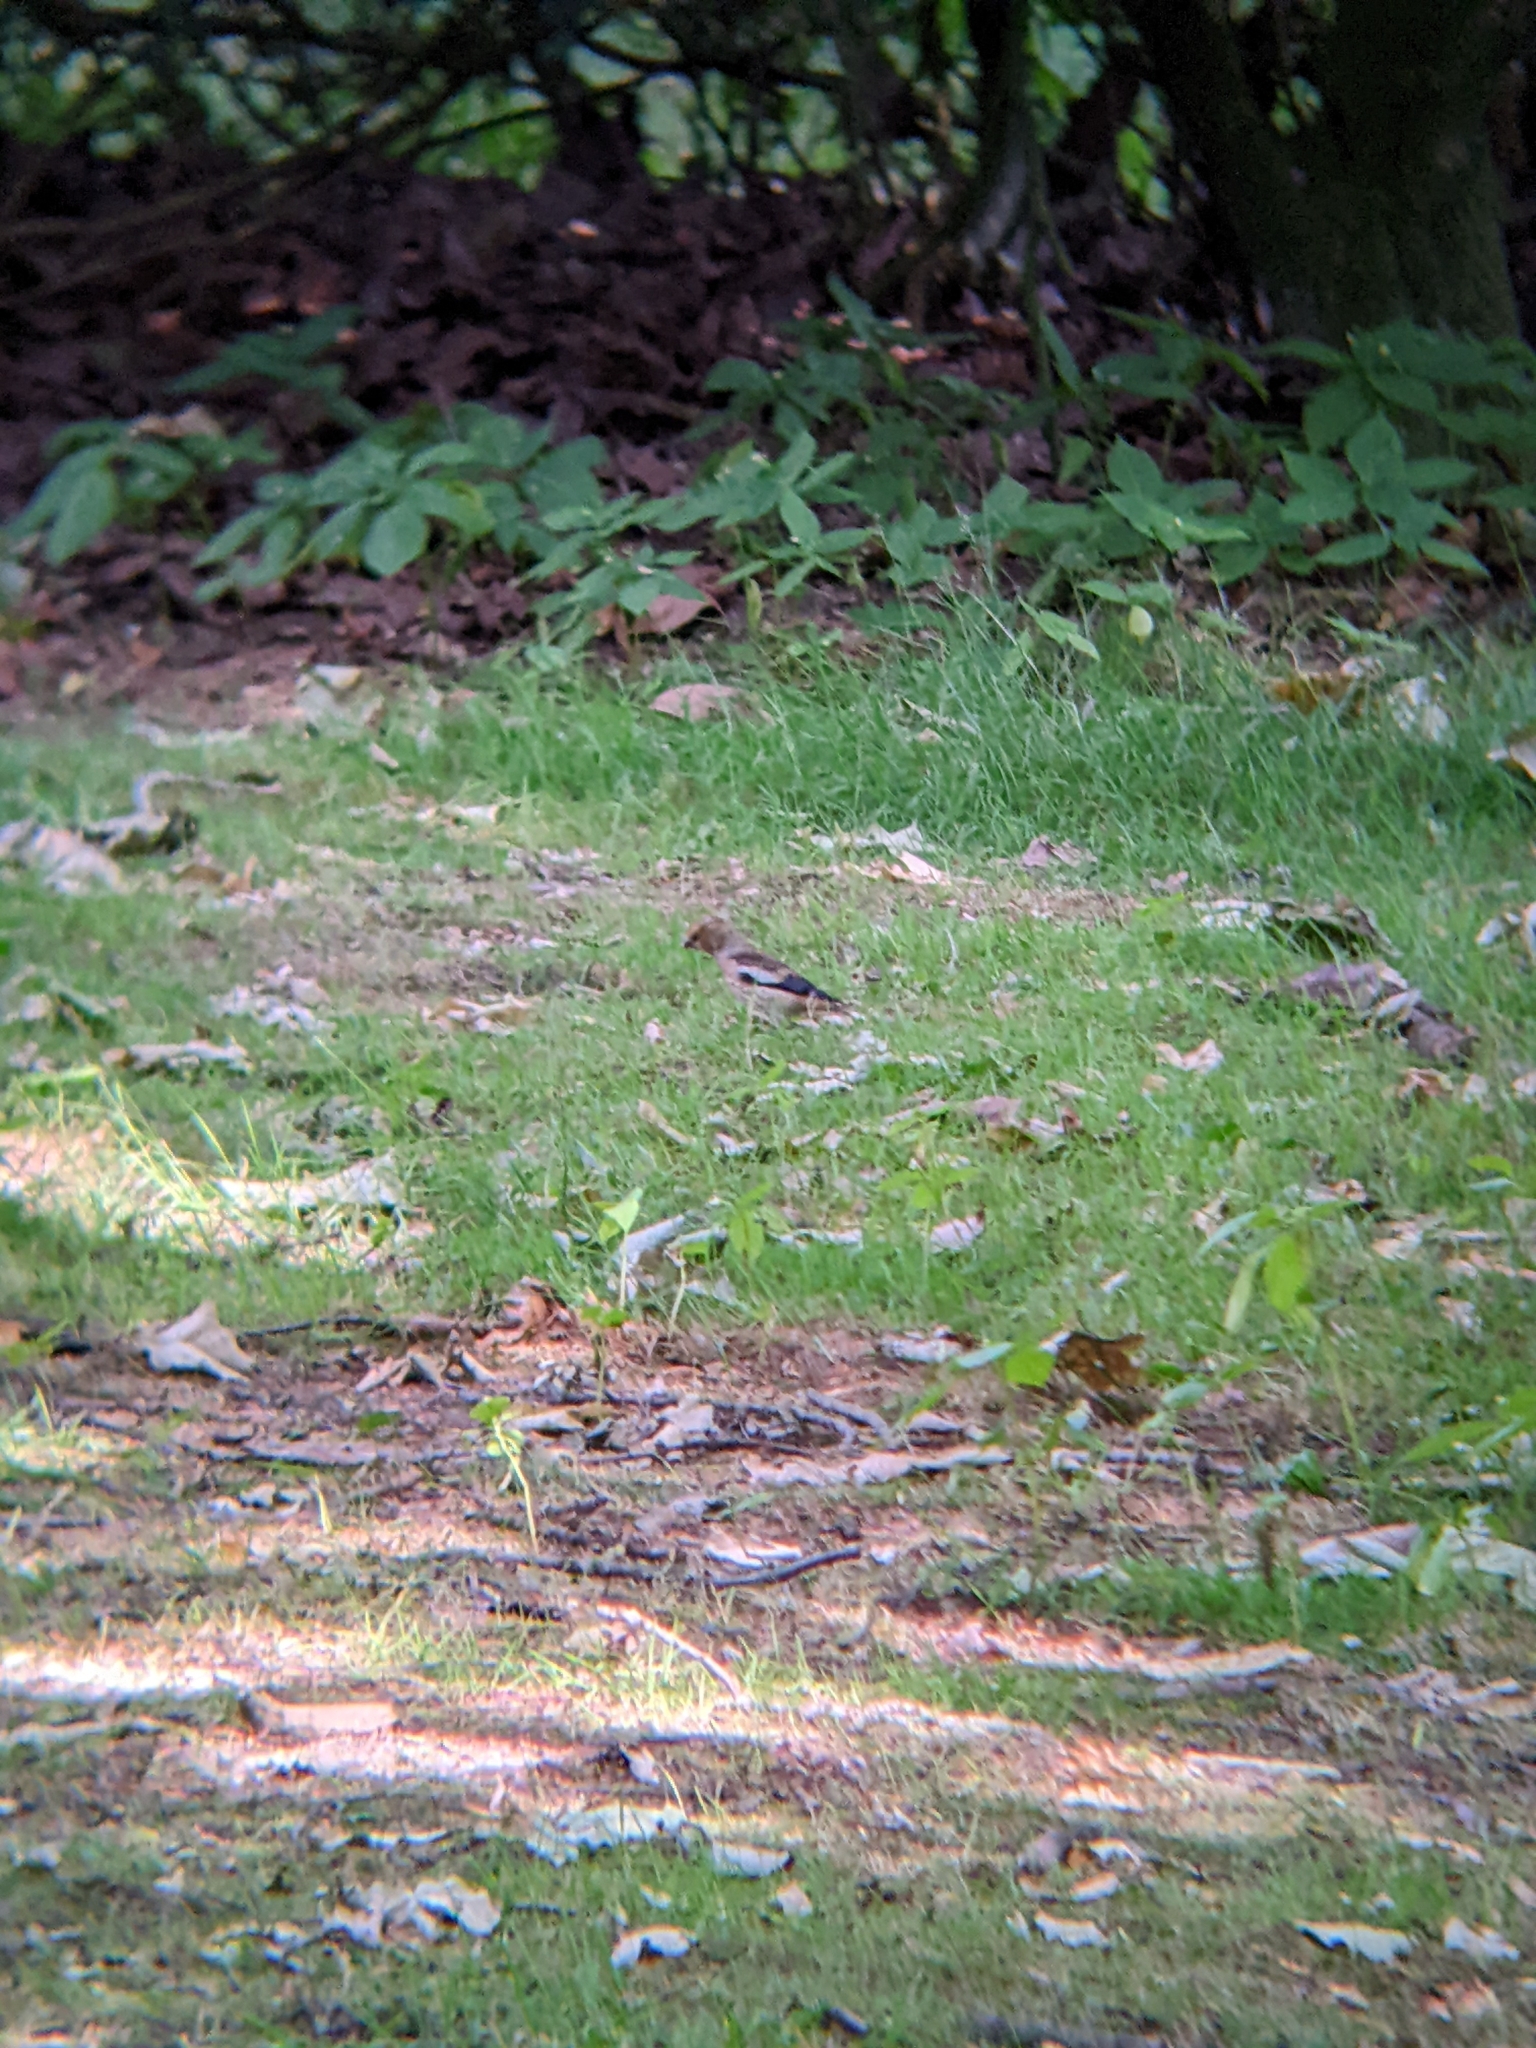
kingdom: Animalia
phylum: Chordata
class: Aves
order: Passeriformes
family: Fringillidae
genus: Coccothraustes
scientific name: Coccothraustes coccothraustes
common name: Hawfinch
